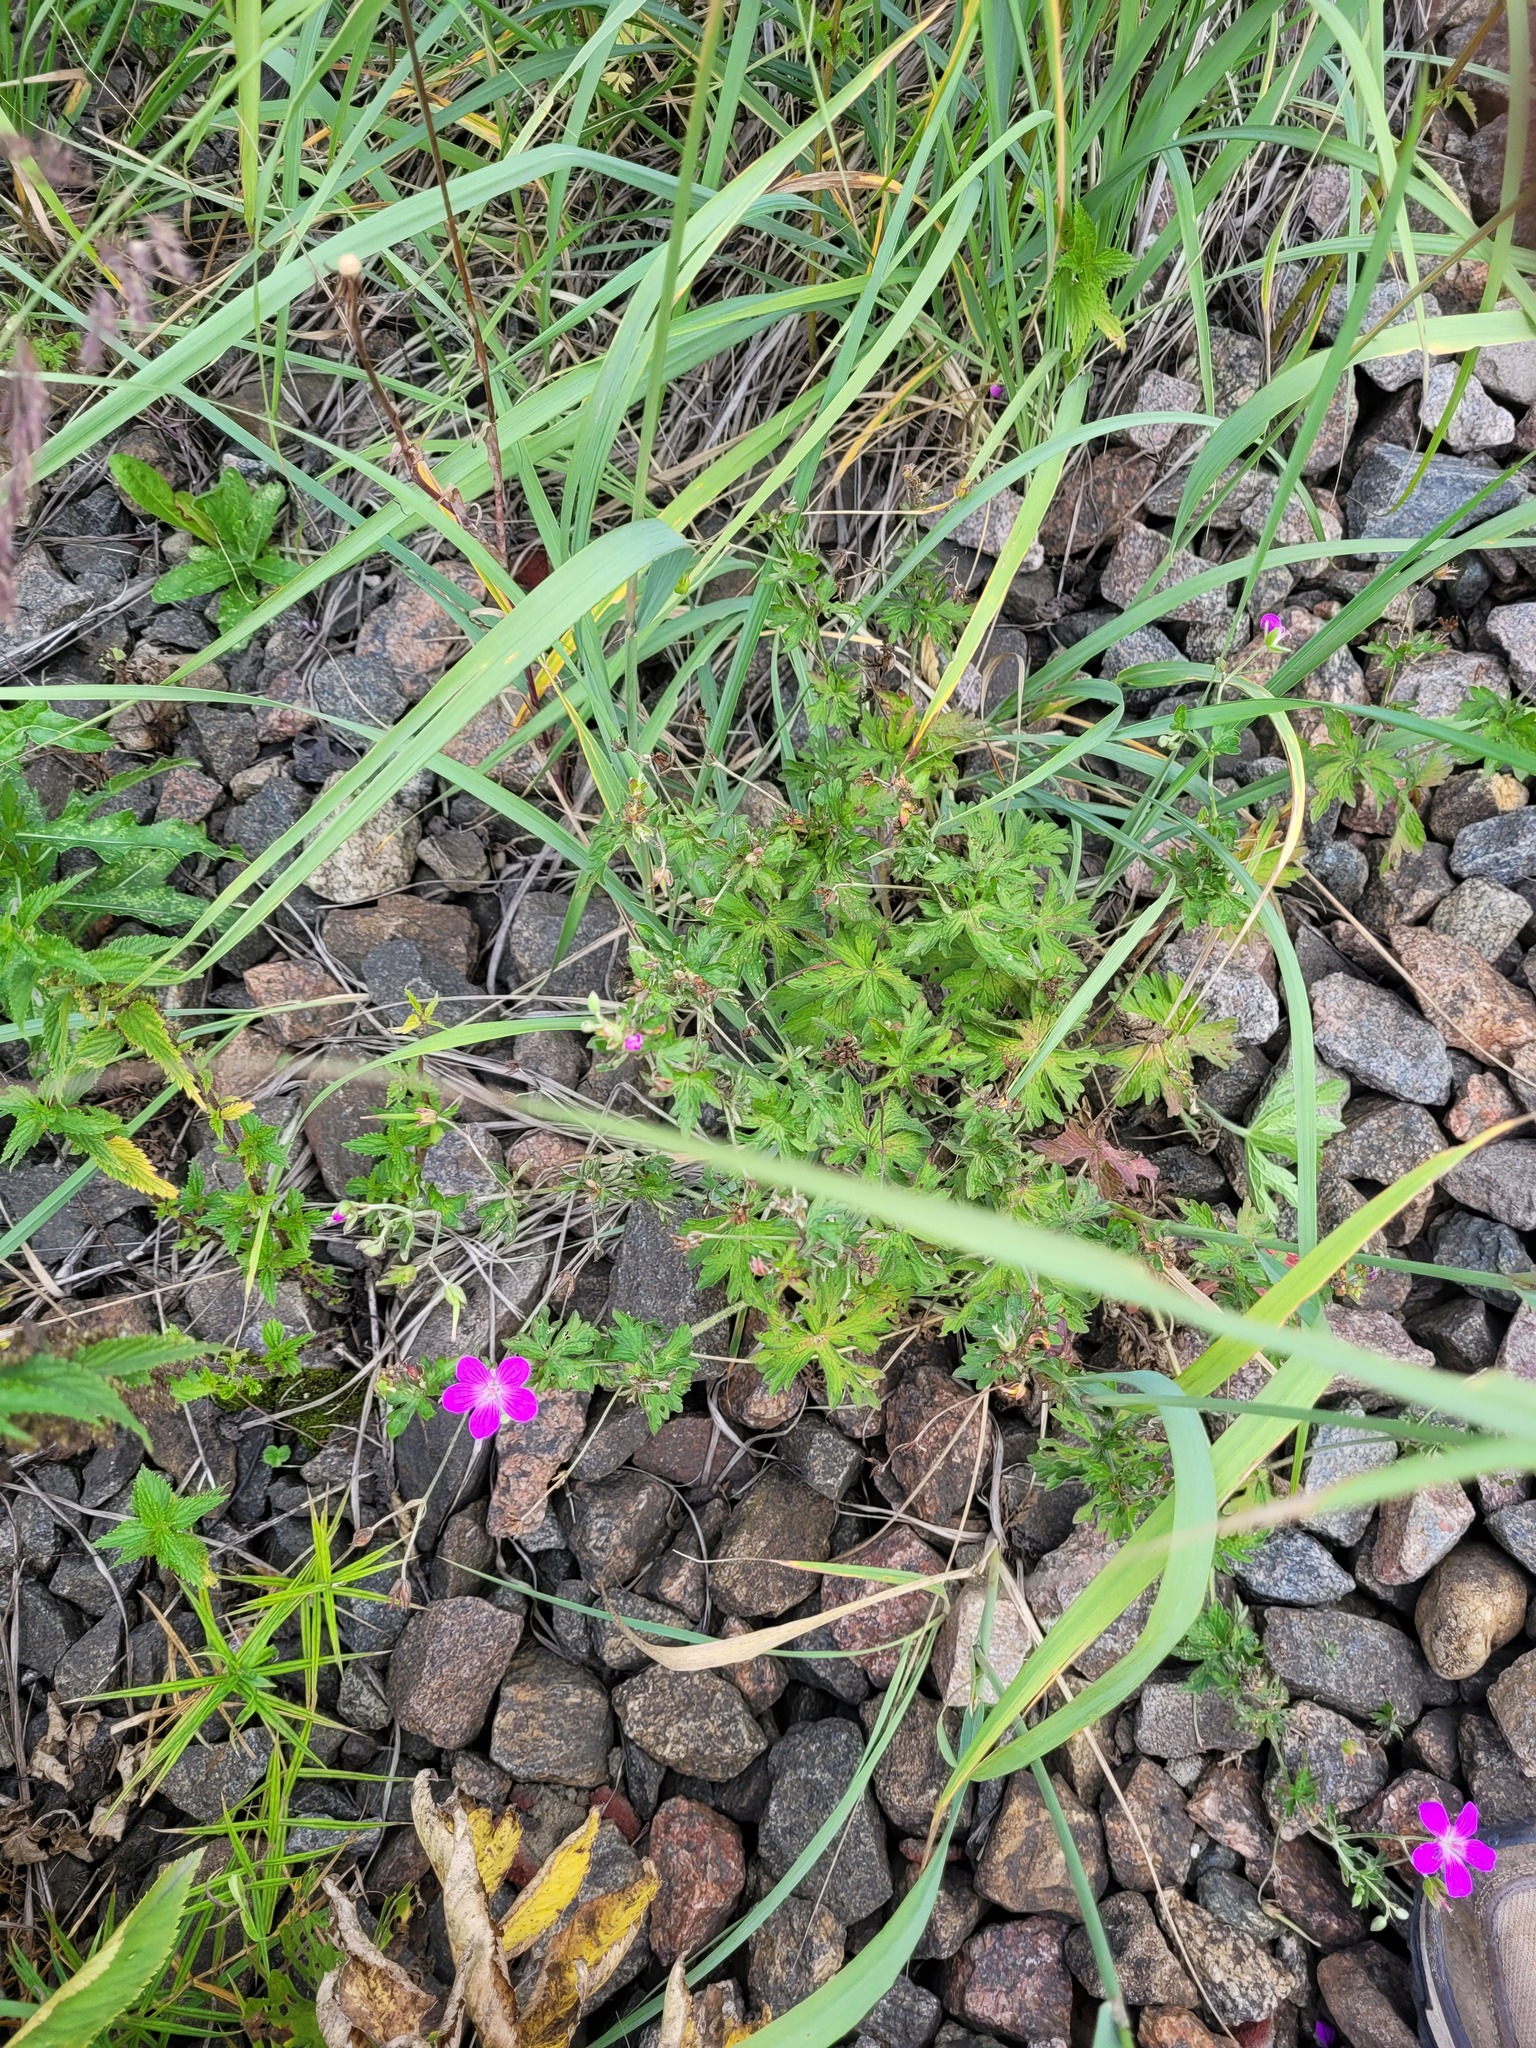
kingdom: Plantae
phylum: Tracheophyta
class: Magnoliopsida
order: Geraniales
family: Geraniaceae
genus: Geranium
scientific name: Geranium palustre
